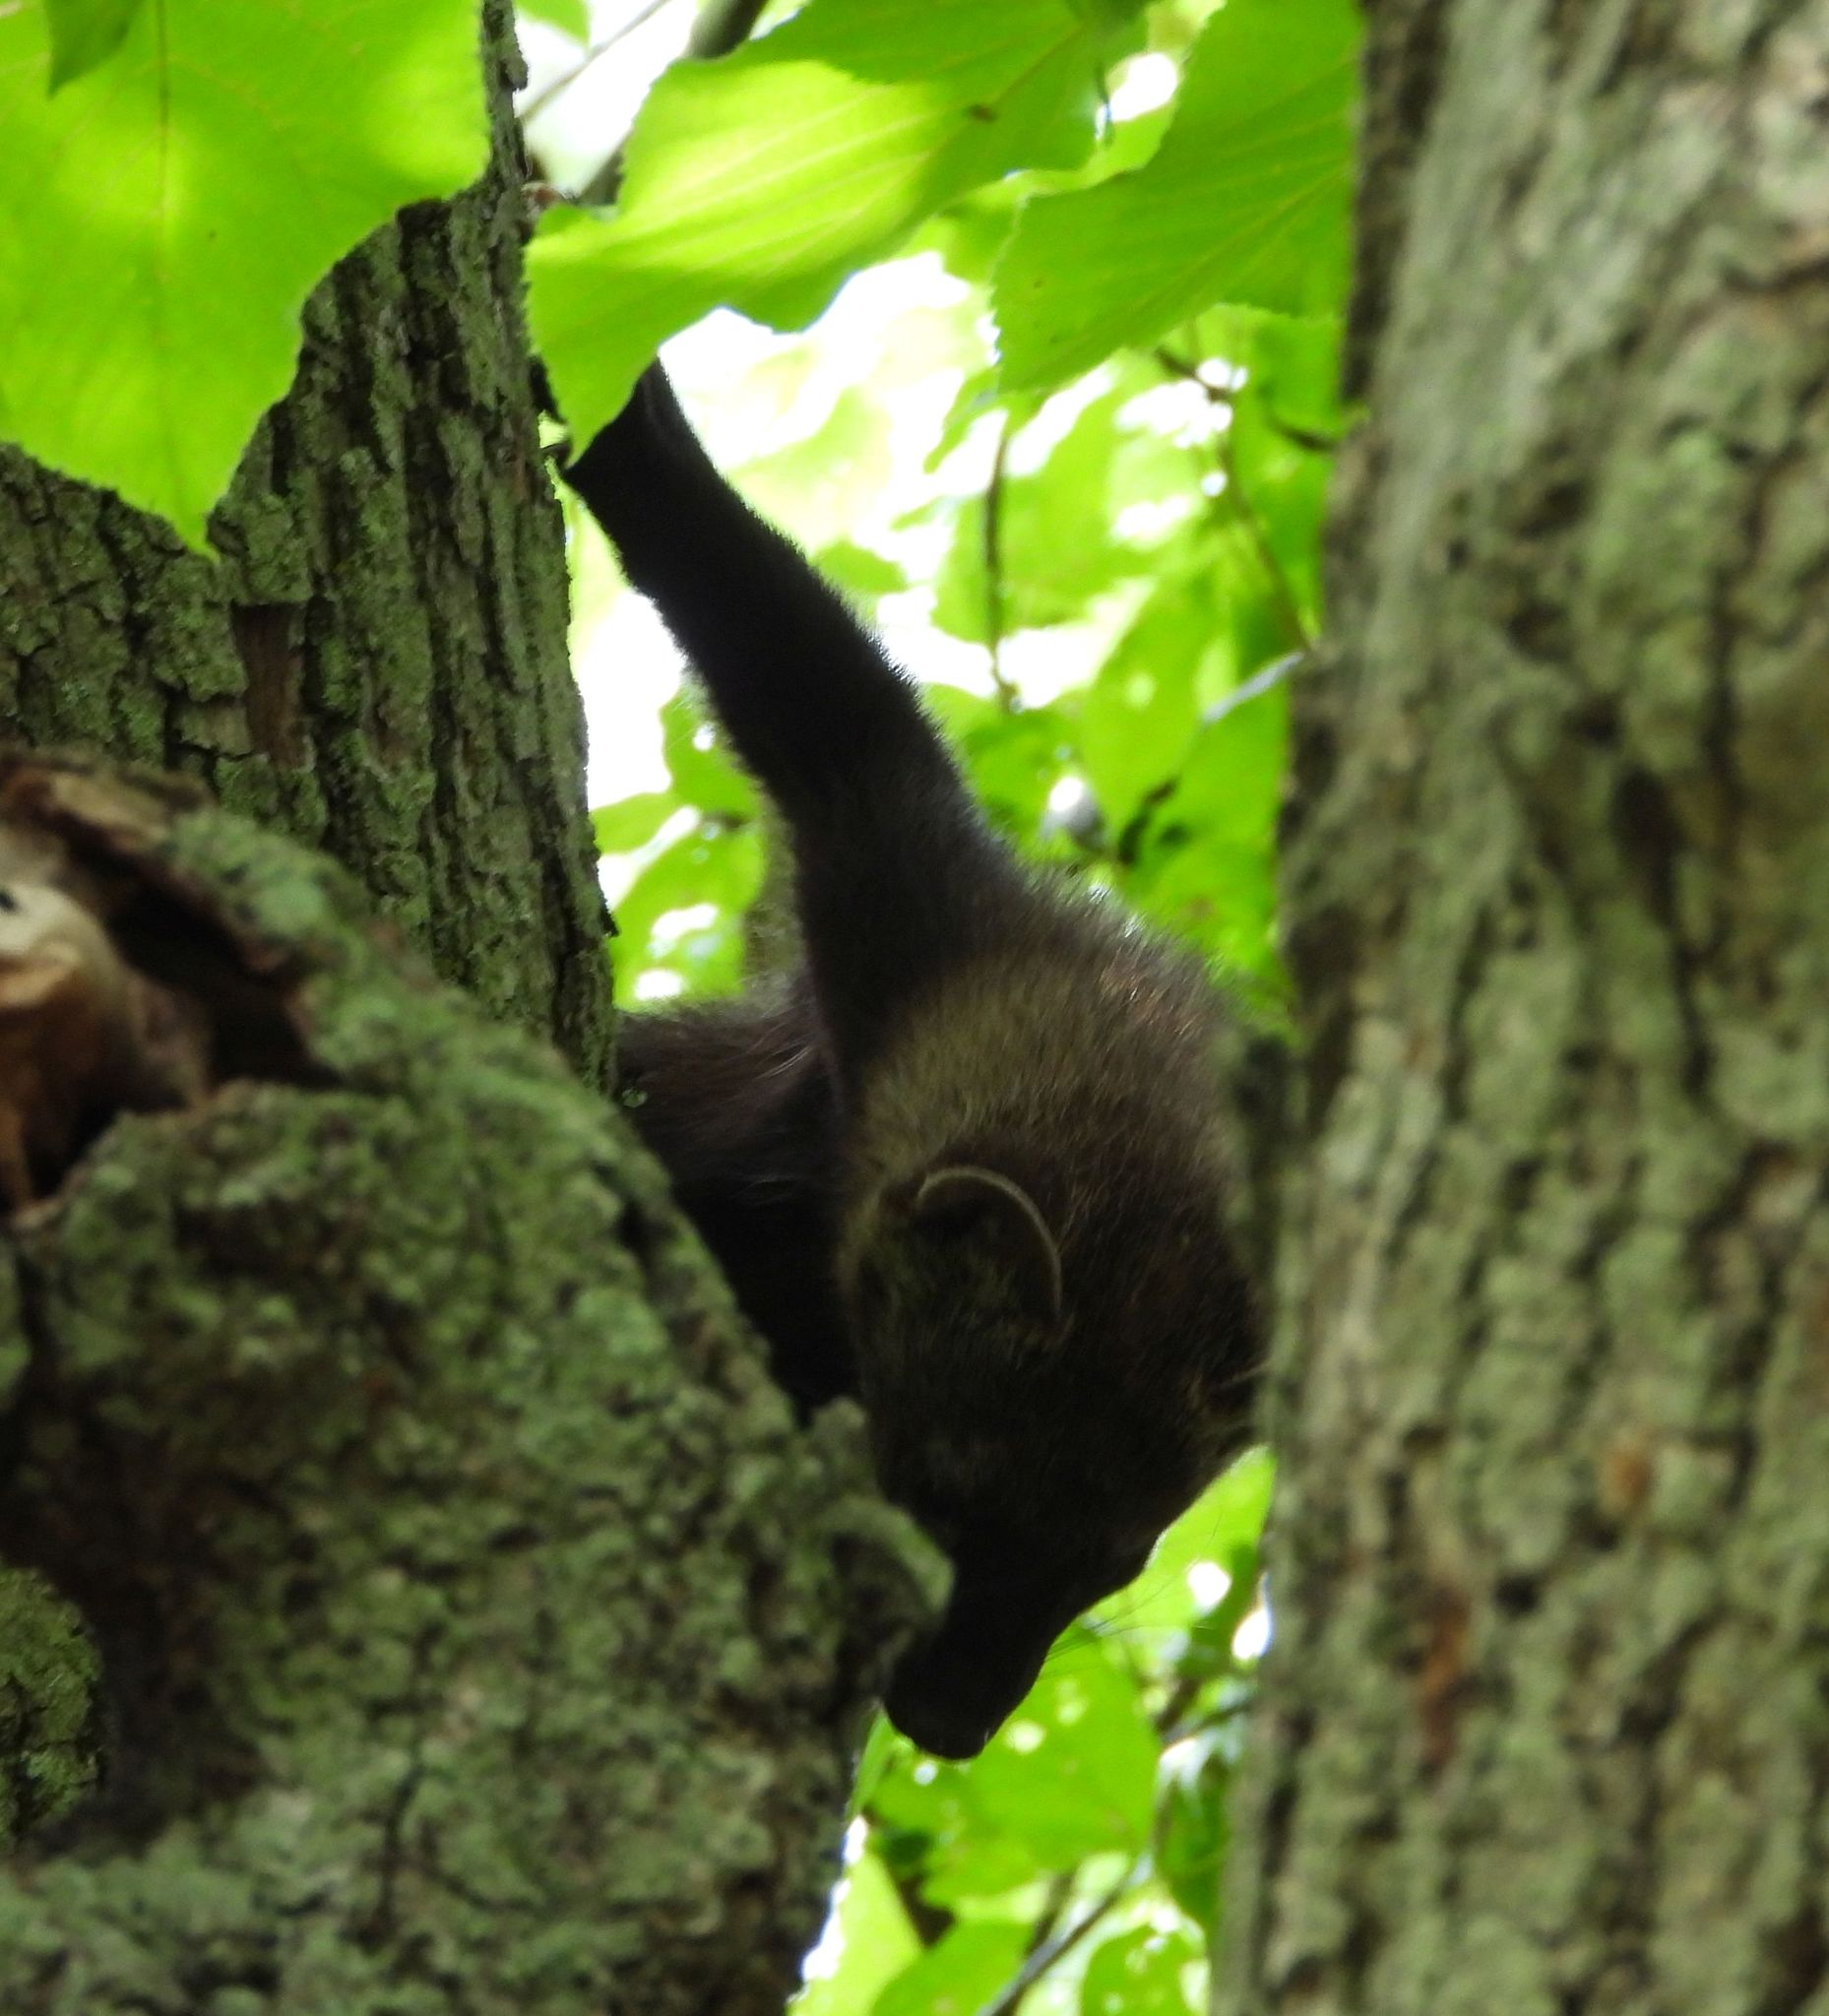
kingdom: Animalia
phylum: Chordata
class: Mammalia
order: Carnivora
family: Mustelidae
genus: Pekania
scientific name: Pekania pennanti
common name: Fisher
